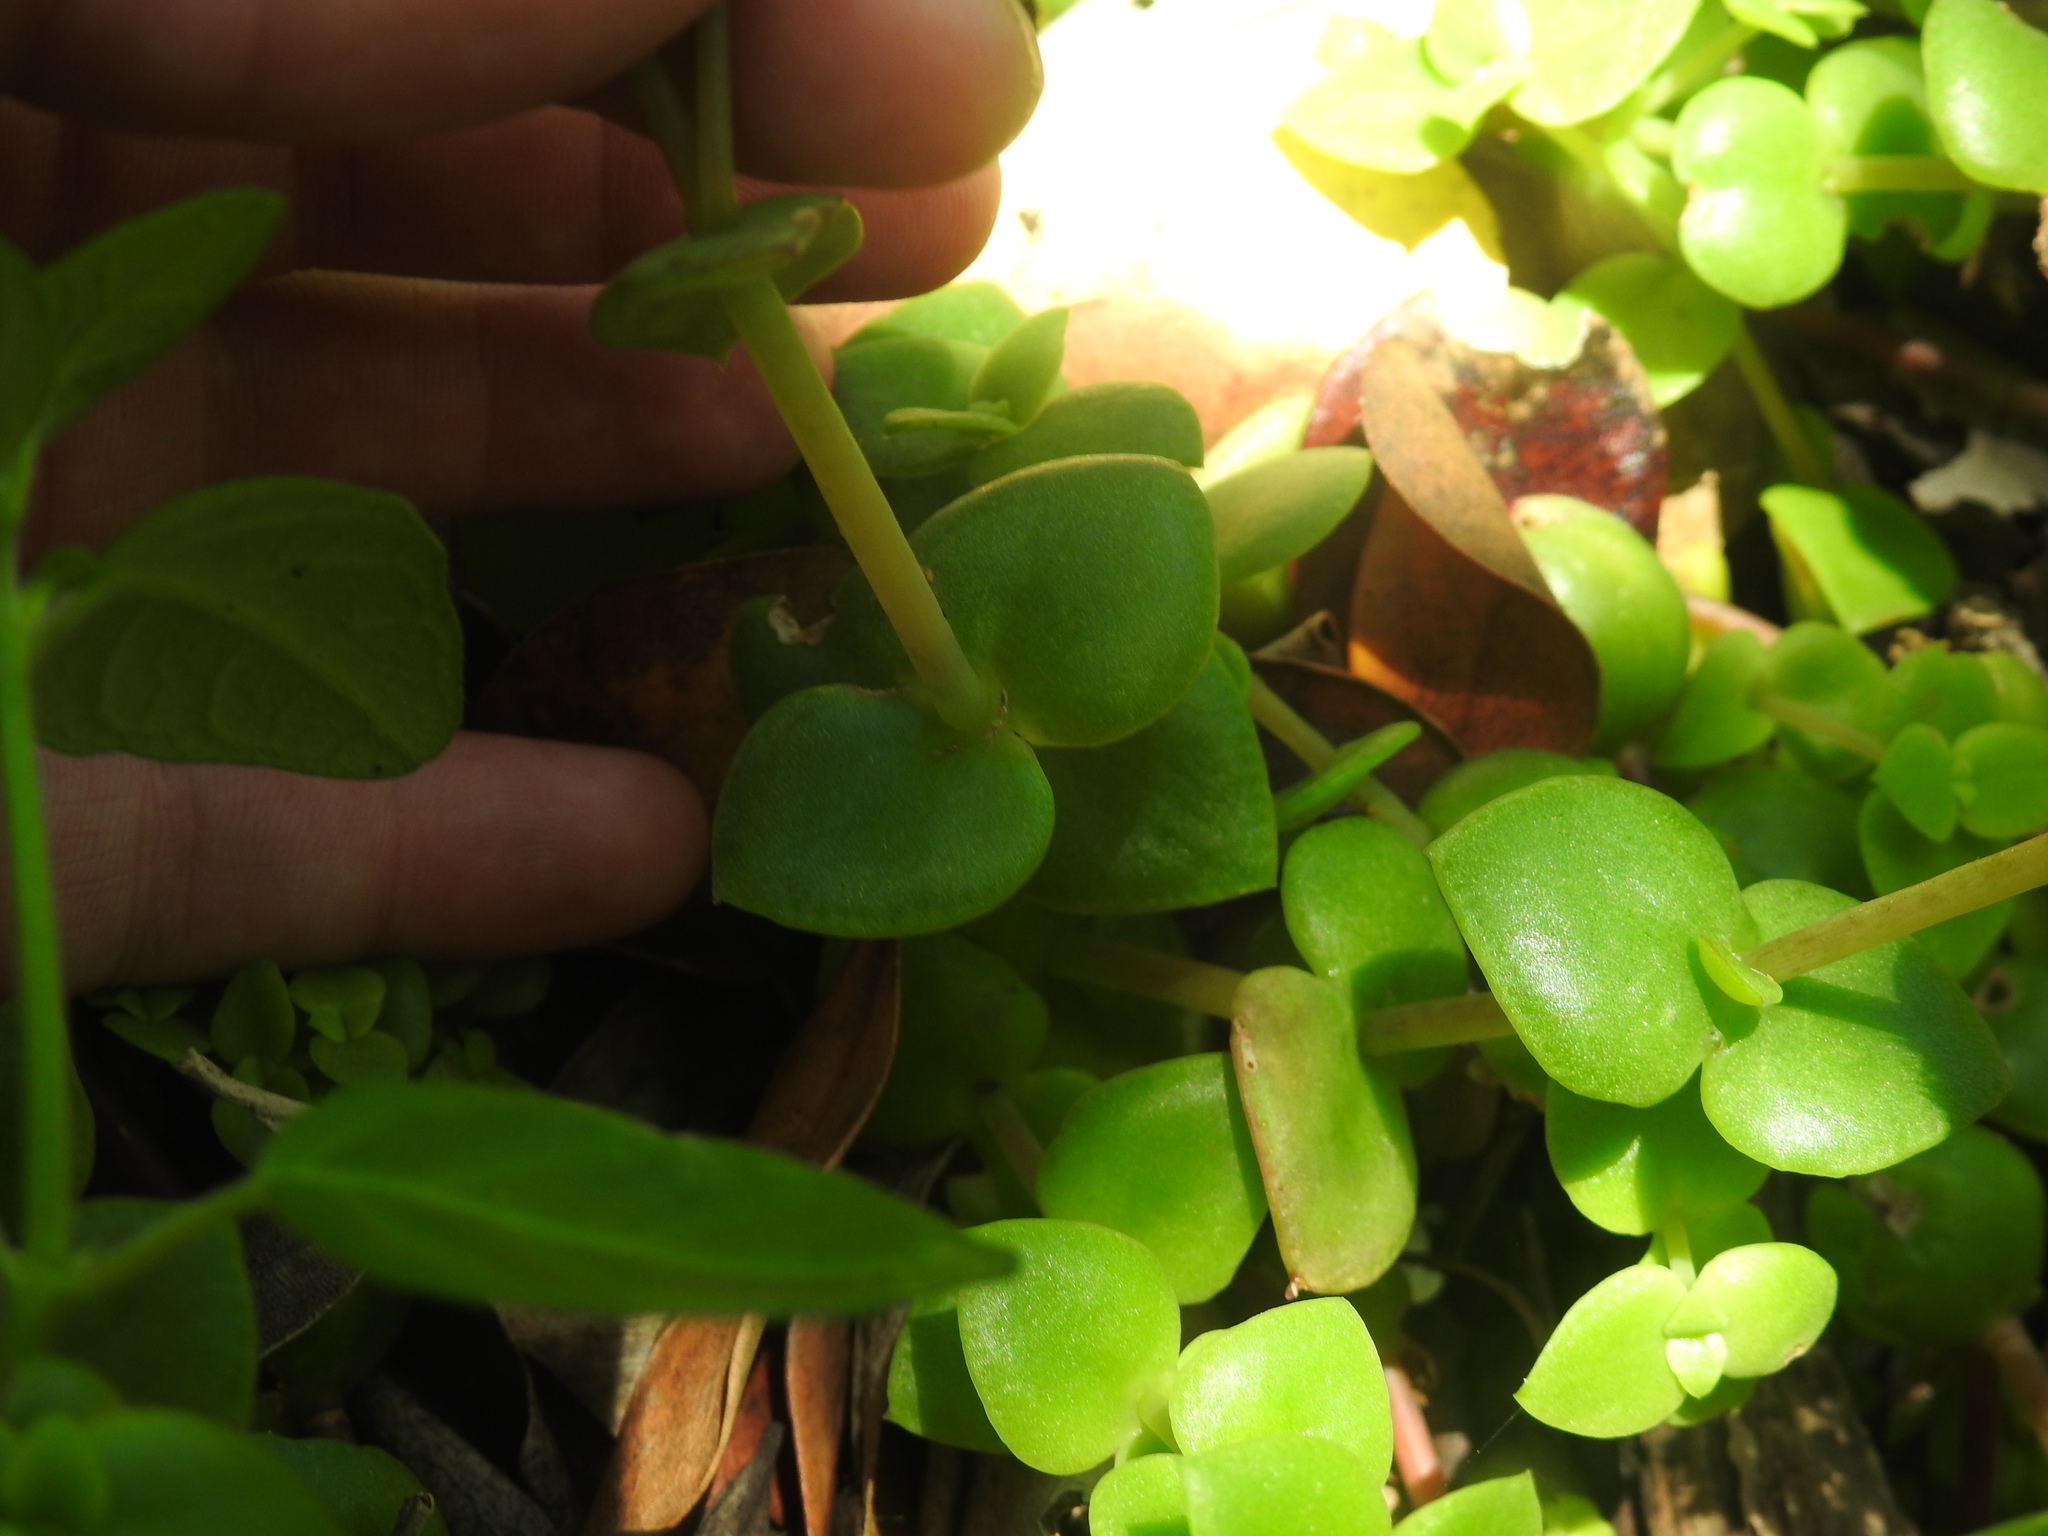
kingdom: Plantae
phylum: Tracheophyta
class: Magnoliopsida
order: Saxifragales
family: Crassulaceae
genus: Crassula
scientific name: Crassula pellucida
